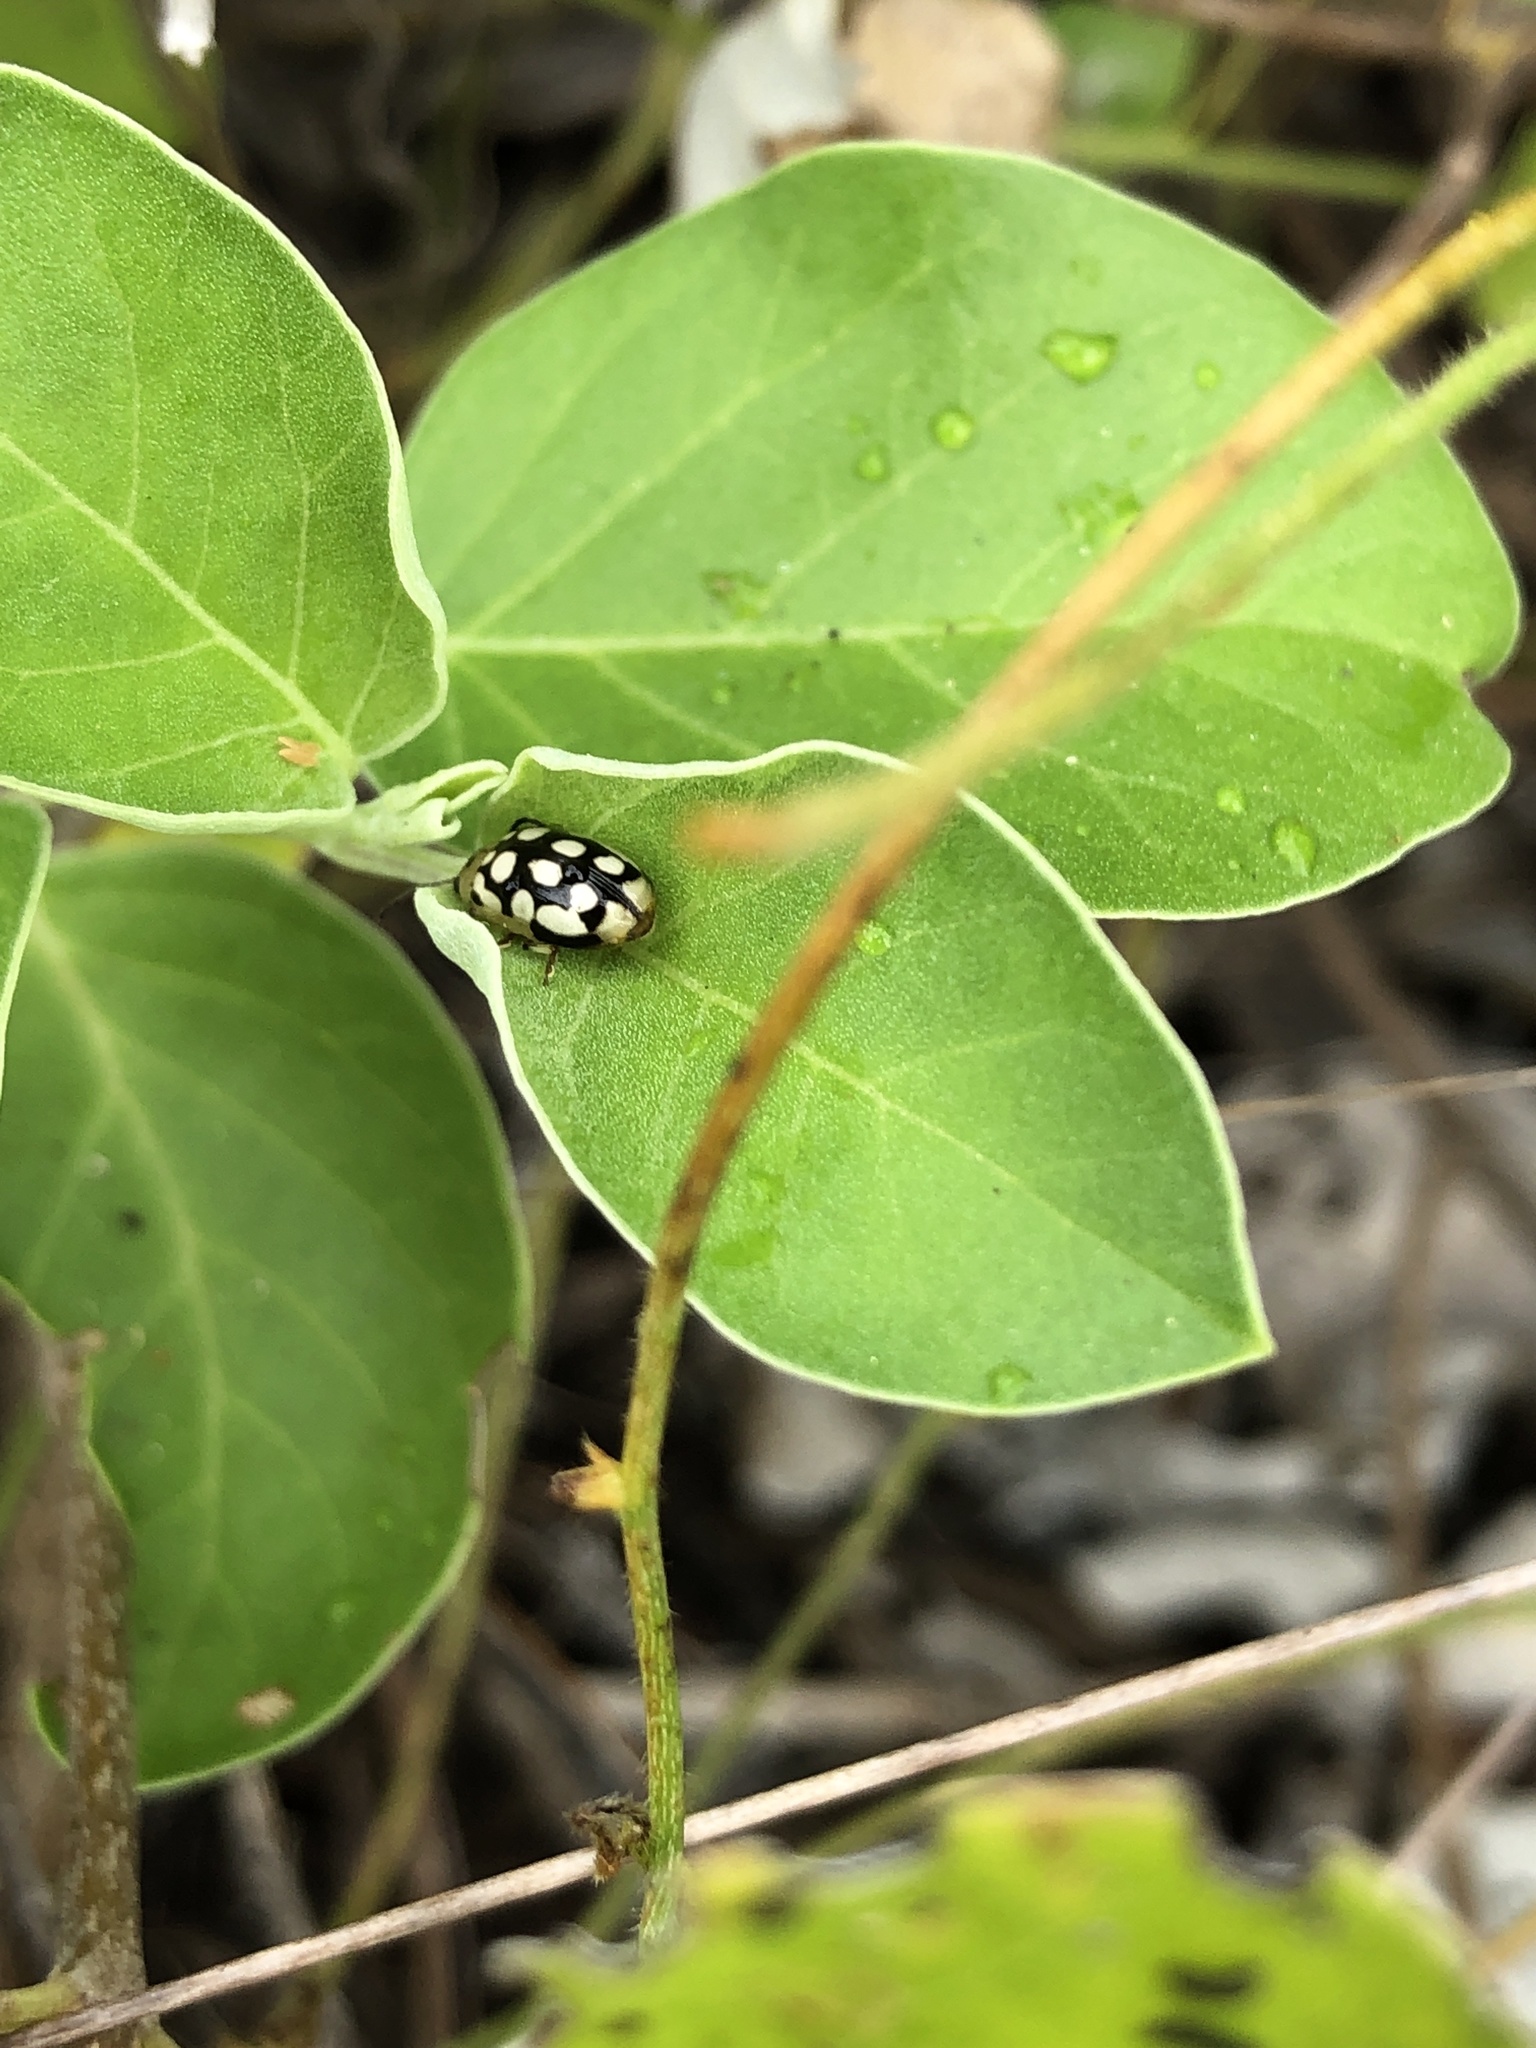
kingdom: Animalia
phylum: Arthropoda
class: Insecta
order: Coleoptera
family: Chrysomelidae
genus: Chalcolampra
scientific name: Chalcolampra octodecimguttata
